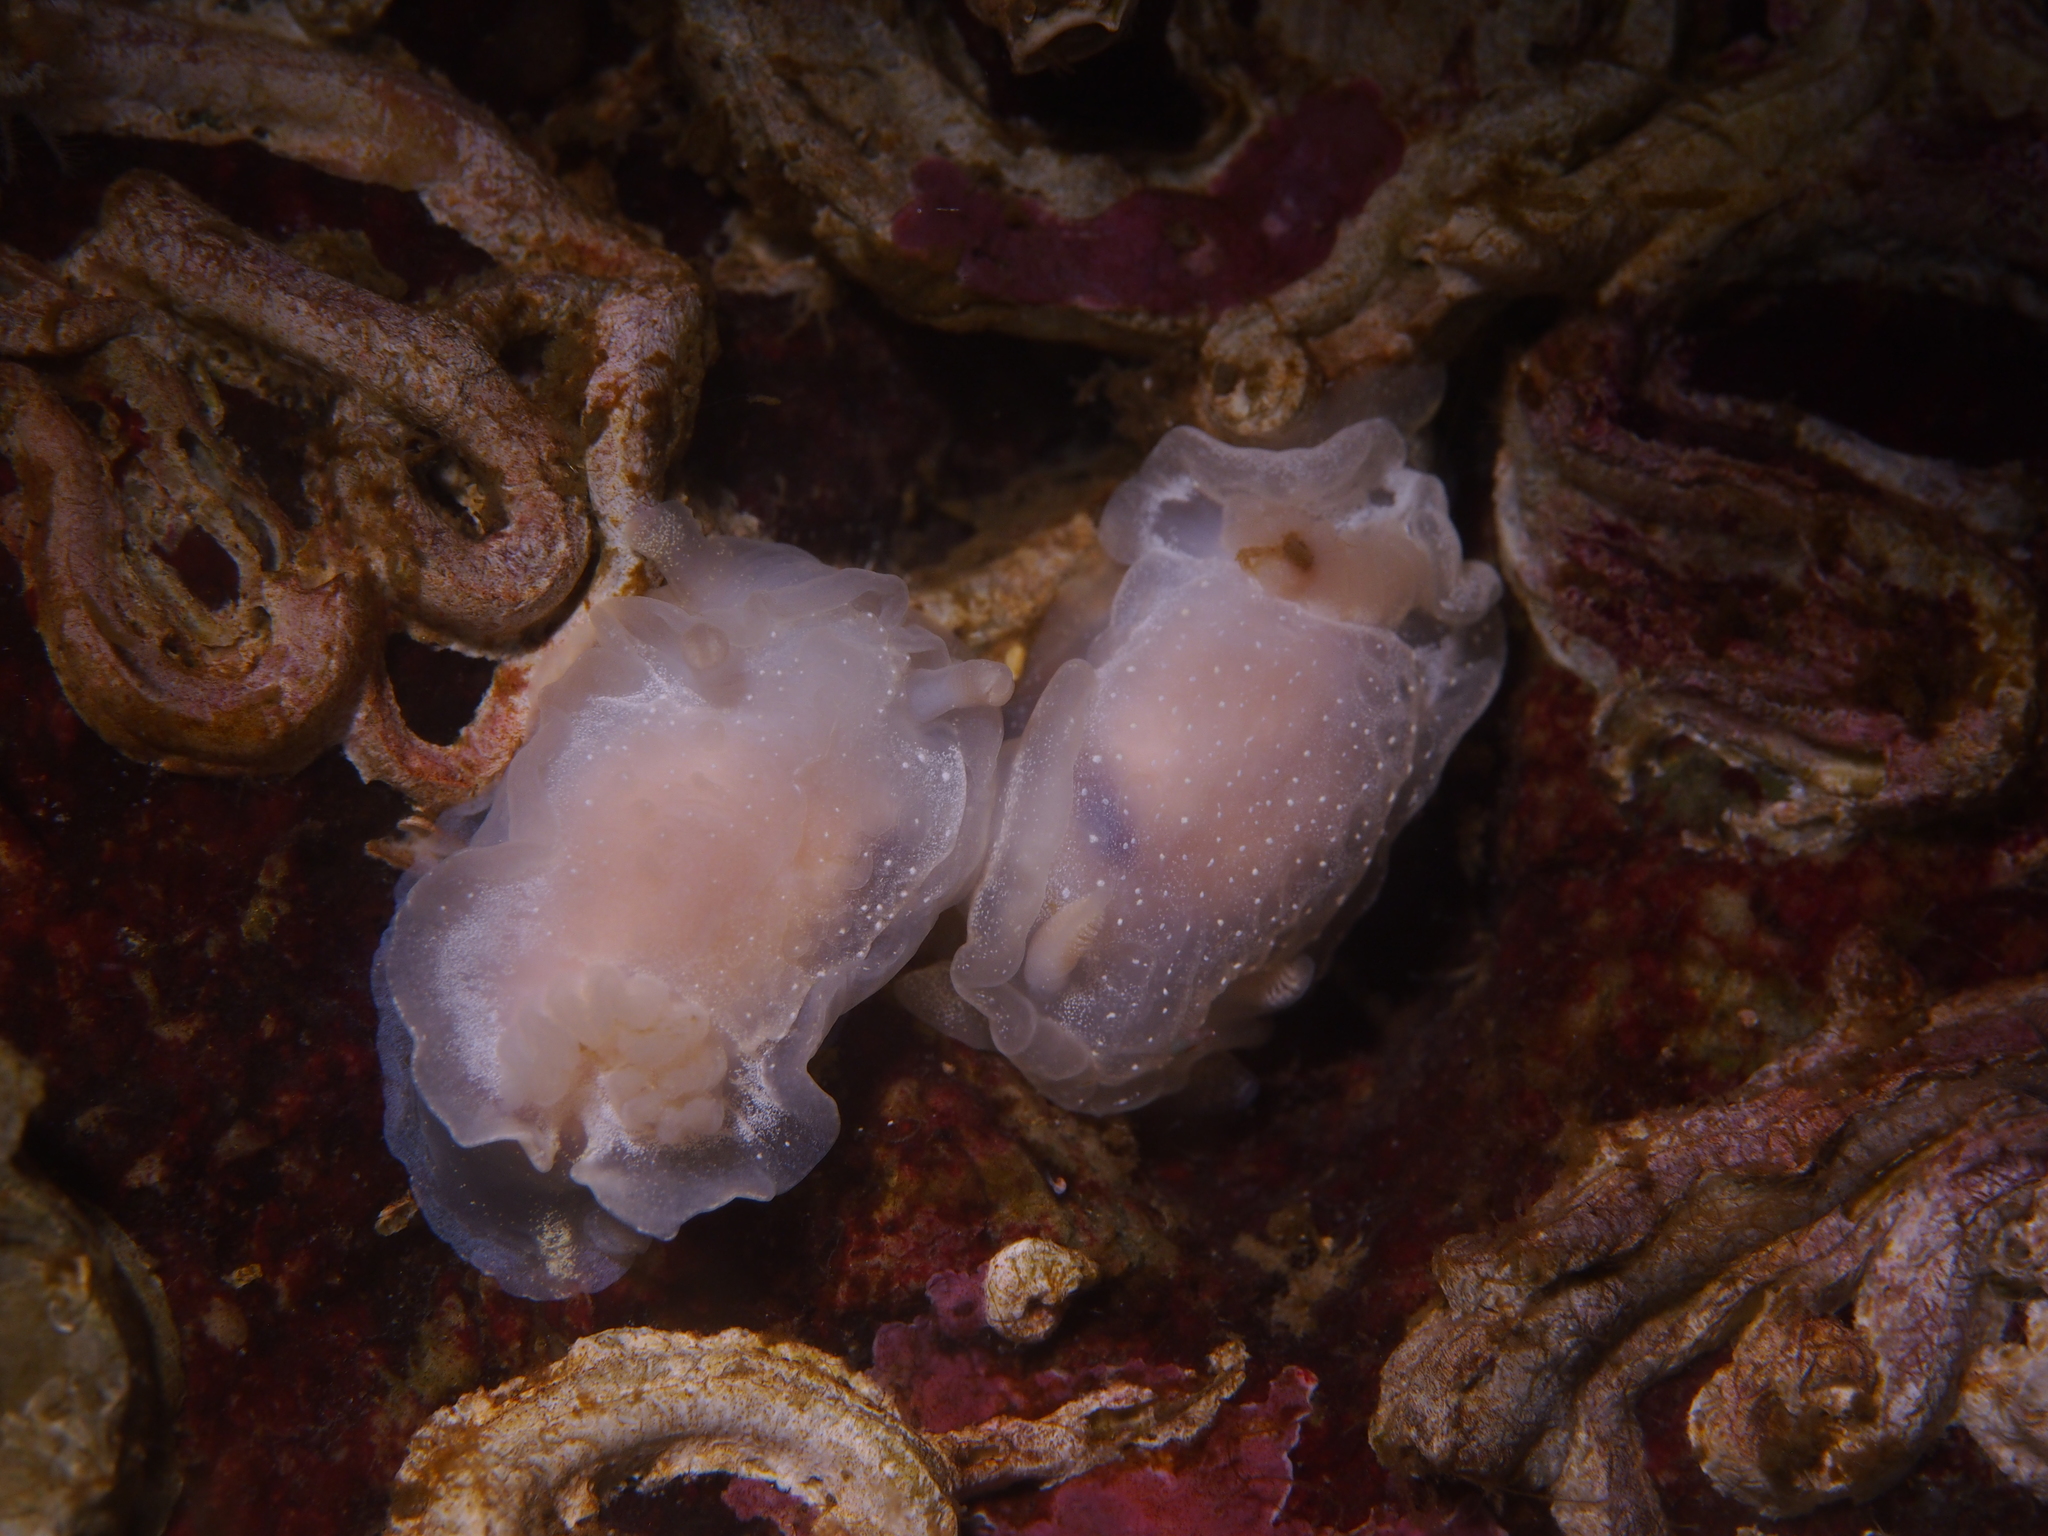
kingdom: Animalia
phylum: Mollusca
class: Gastropoda
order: Nudibranchia
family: Goniodorididae
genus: Okenia
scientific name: Okenia
